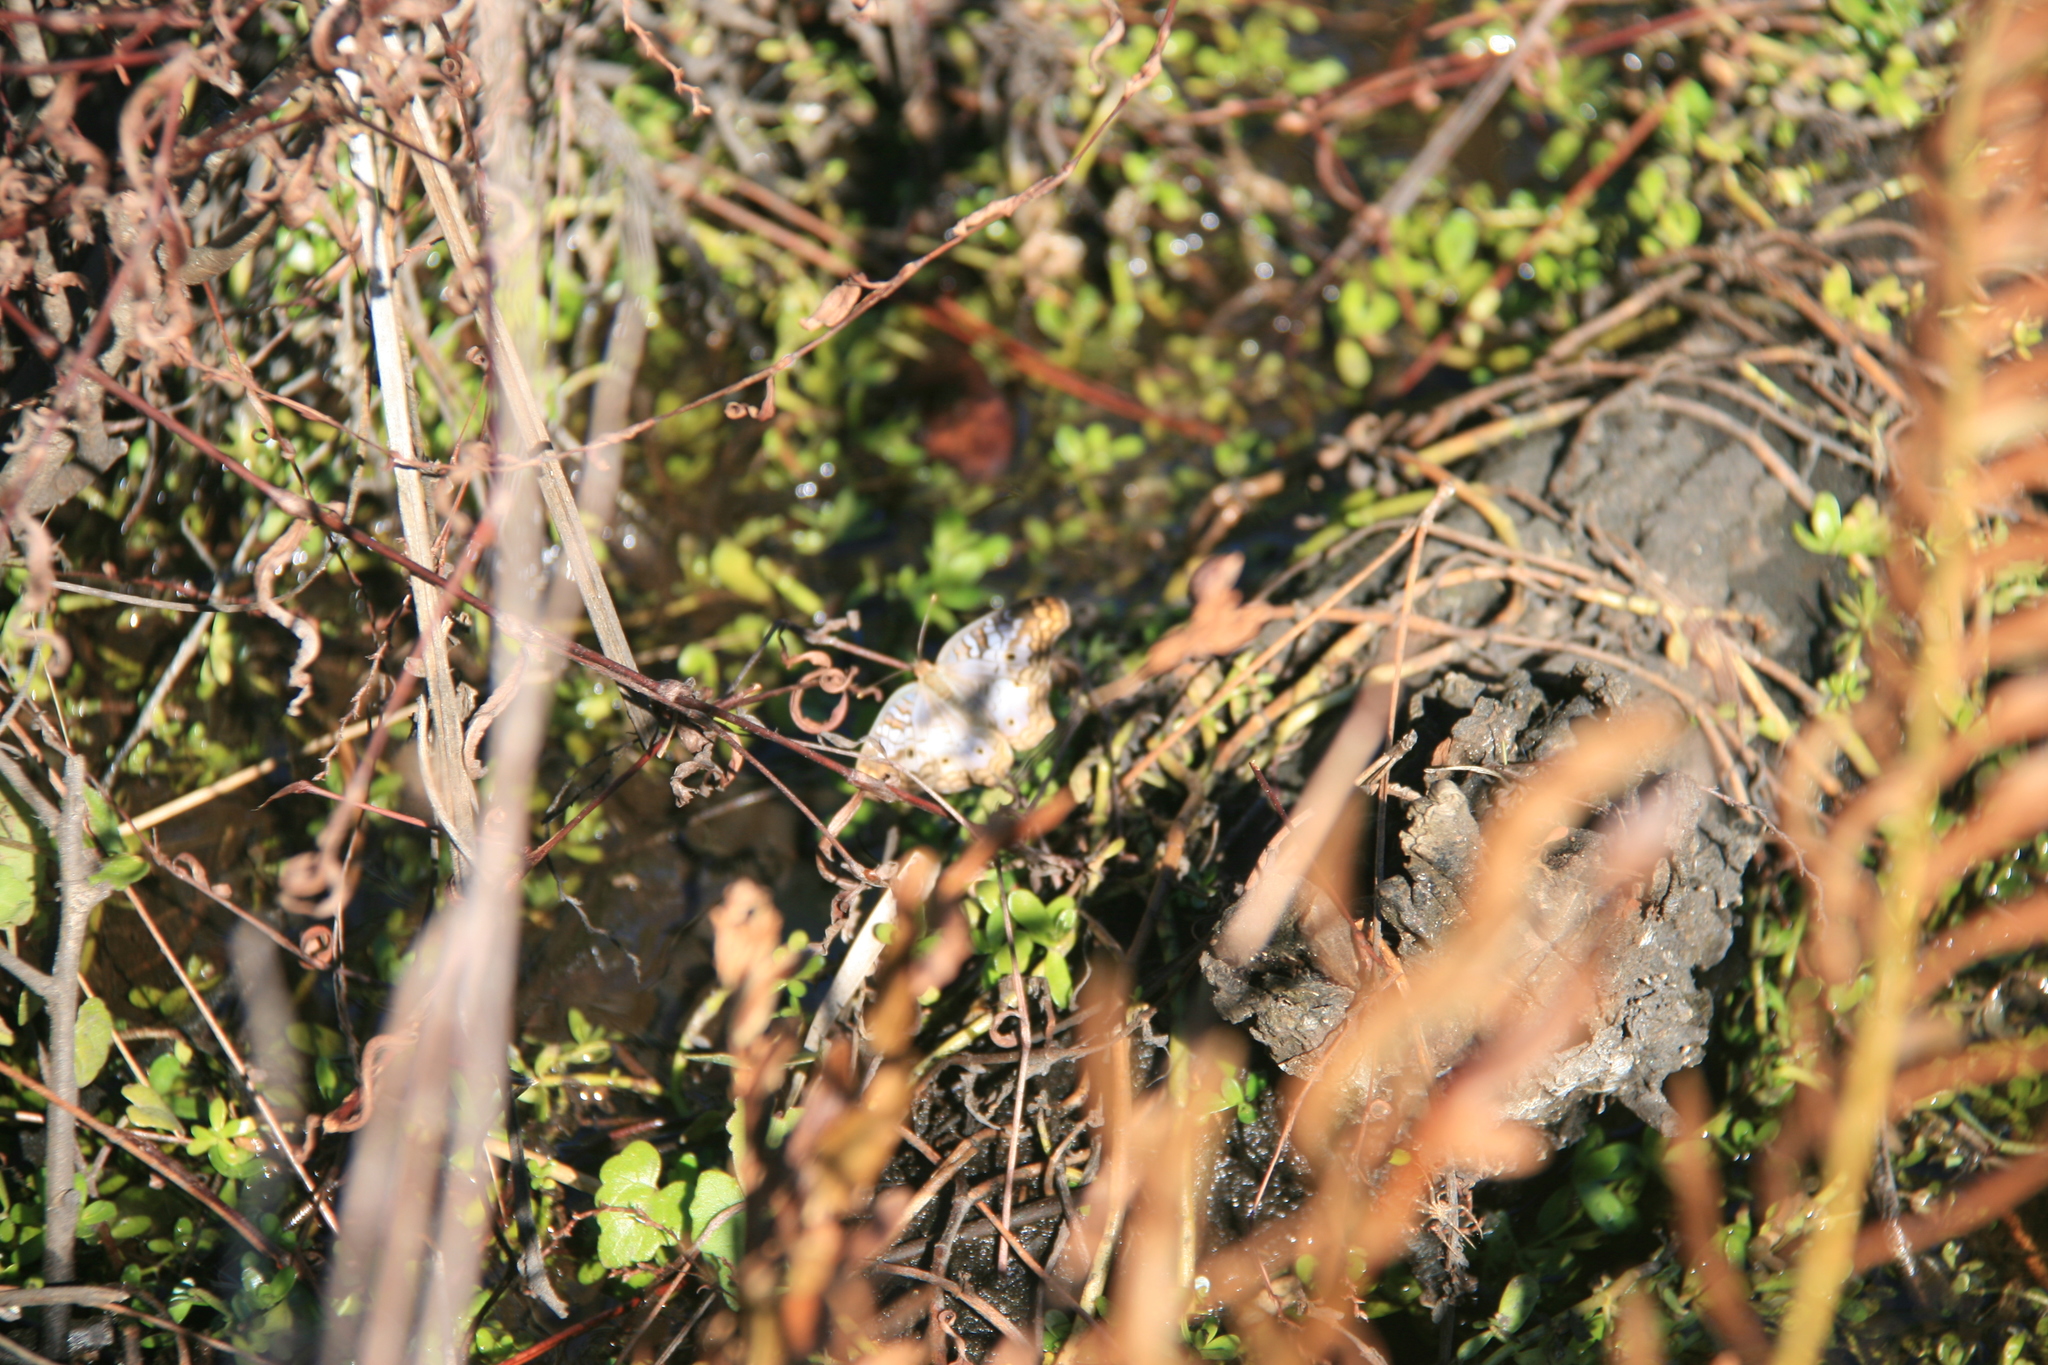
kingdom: Animalia
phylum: Arthropoda
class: Insecta
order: Lepidoptera
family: Nymphalidae
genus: Anartia
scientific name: Anartia jatrophae
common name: White peacock
